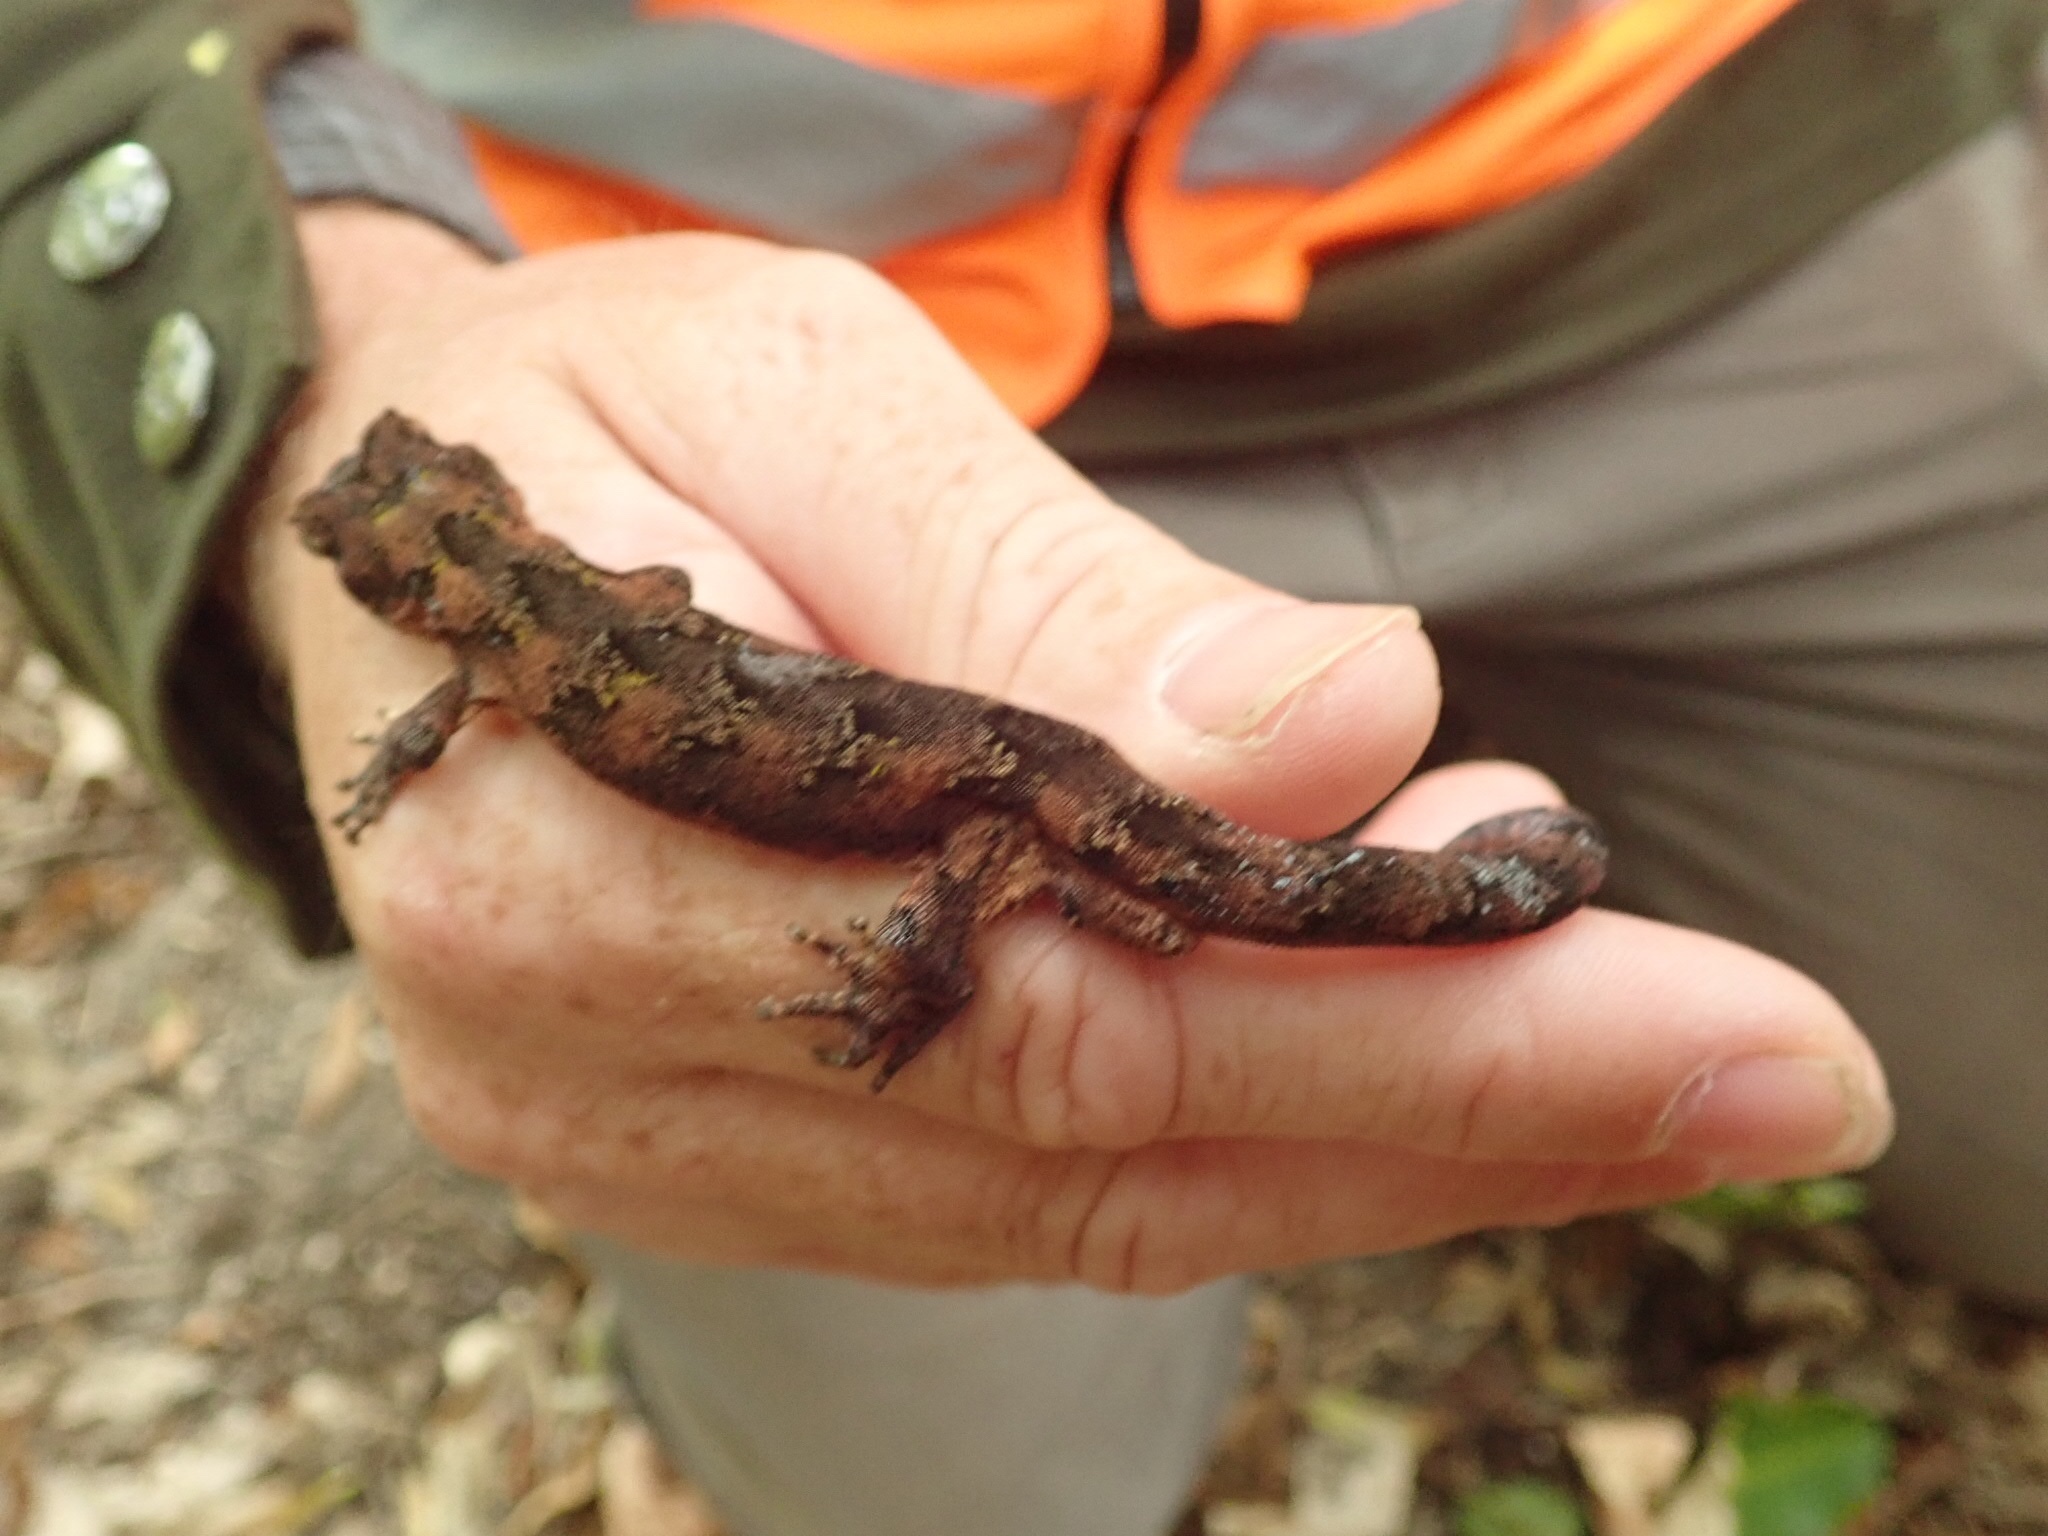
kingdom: Animalia
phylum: Chordata
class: Squamata
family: Diplodactylidae
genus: Mokopirirakau
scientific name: Mokopirirakau
